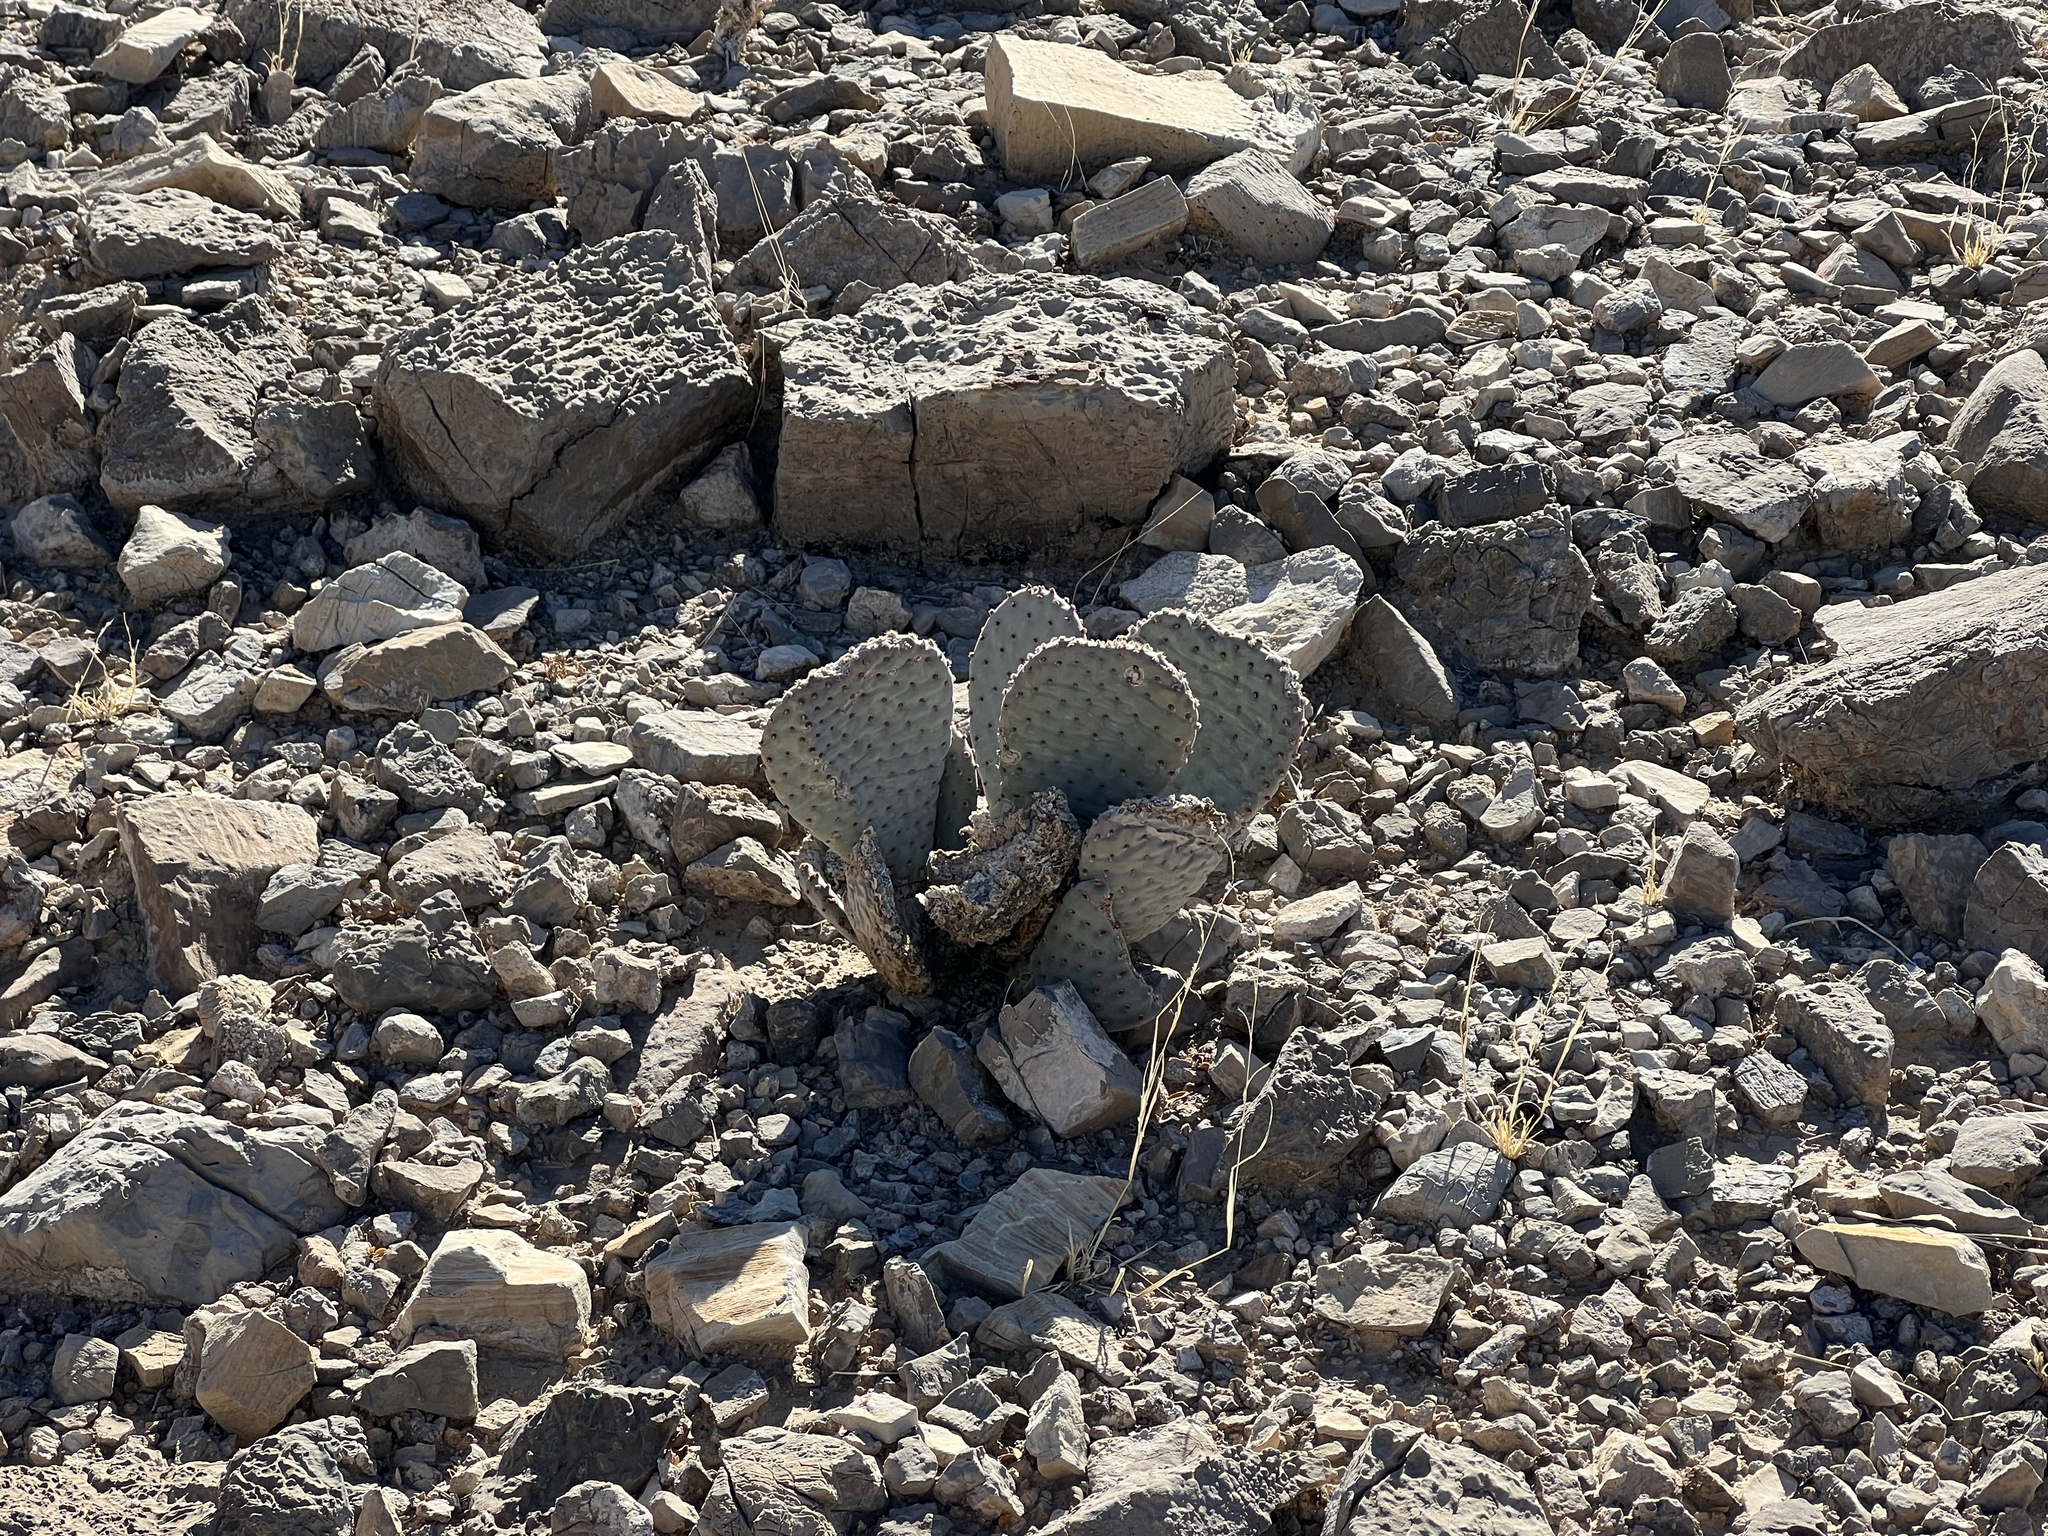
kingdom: Plantae
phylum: Tracheophyta
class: Magnoliopsida
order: Caryophyllales
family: Cactaceae
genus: Opuntia
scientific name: Opuntia basilaris
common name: Beavertail prickly-pear
